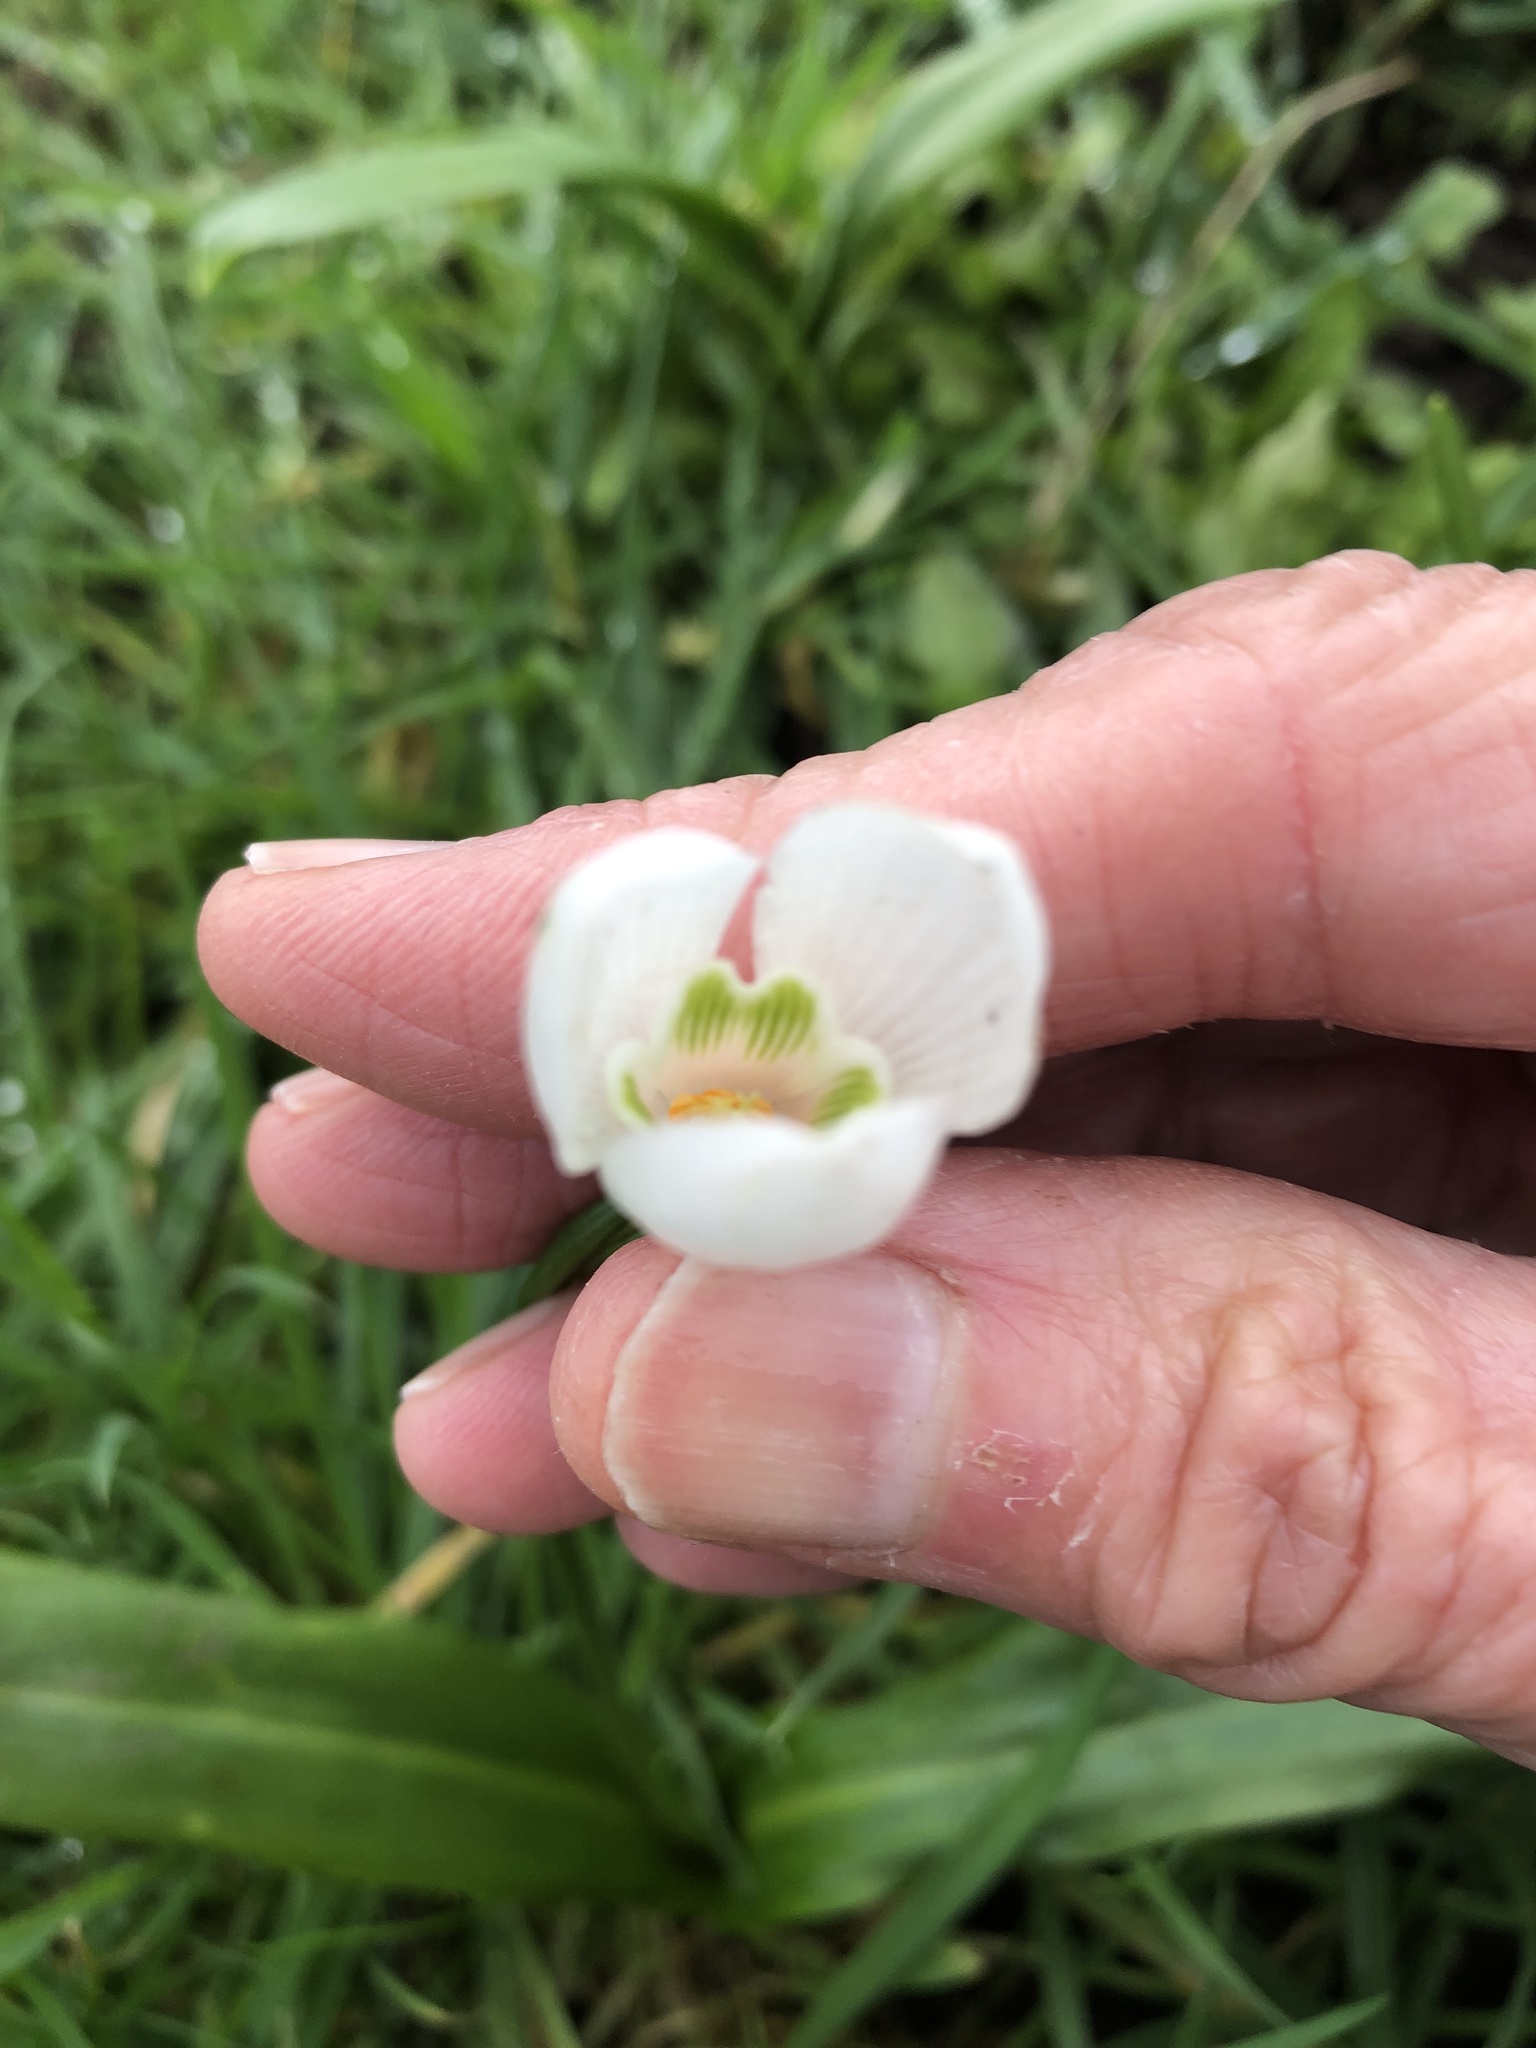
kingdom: Plantae
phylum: Tracheophyta
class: Liliopsida
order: Asparagales
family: Amaryllidaceae
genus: Galanthus
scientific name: Galanthus plicatus
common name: Pleated snowdrop
